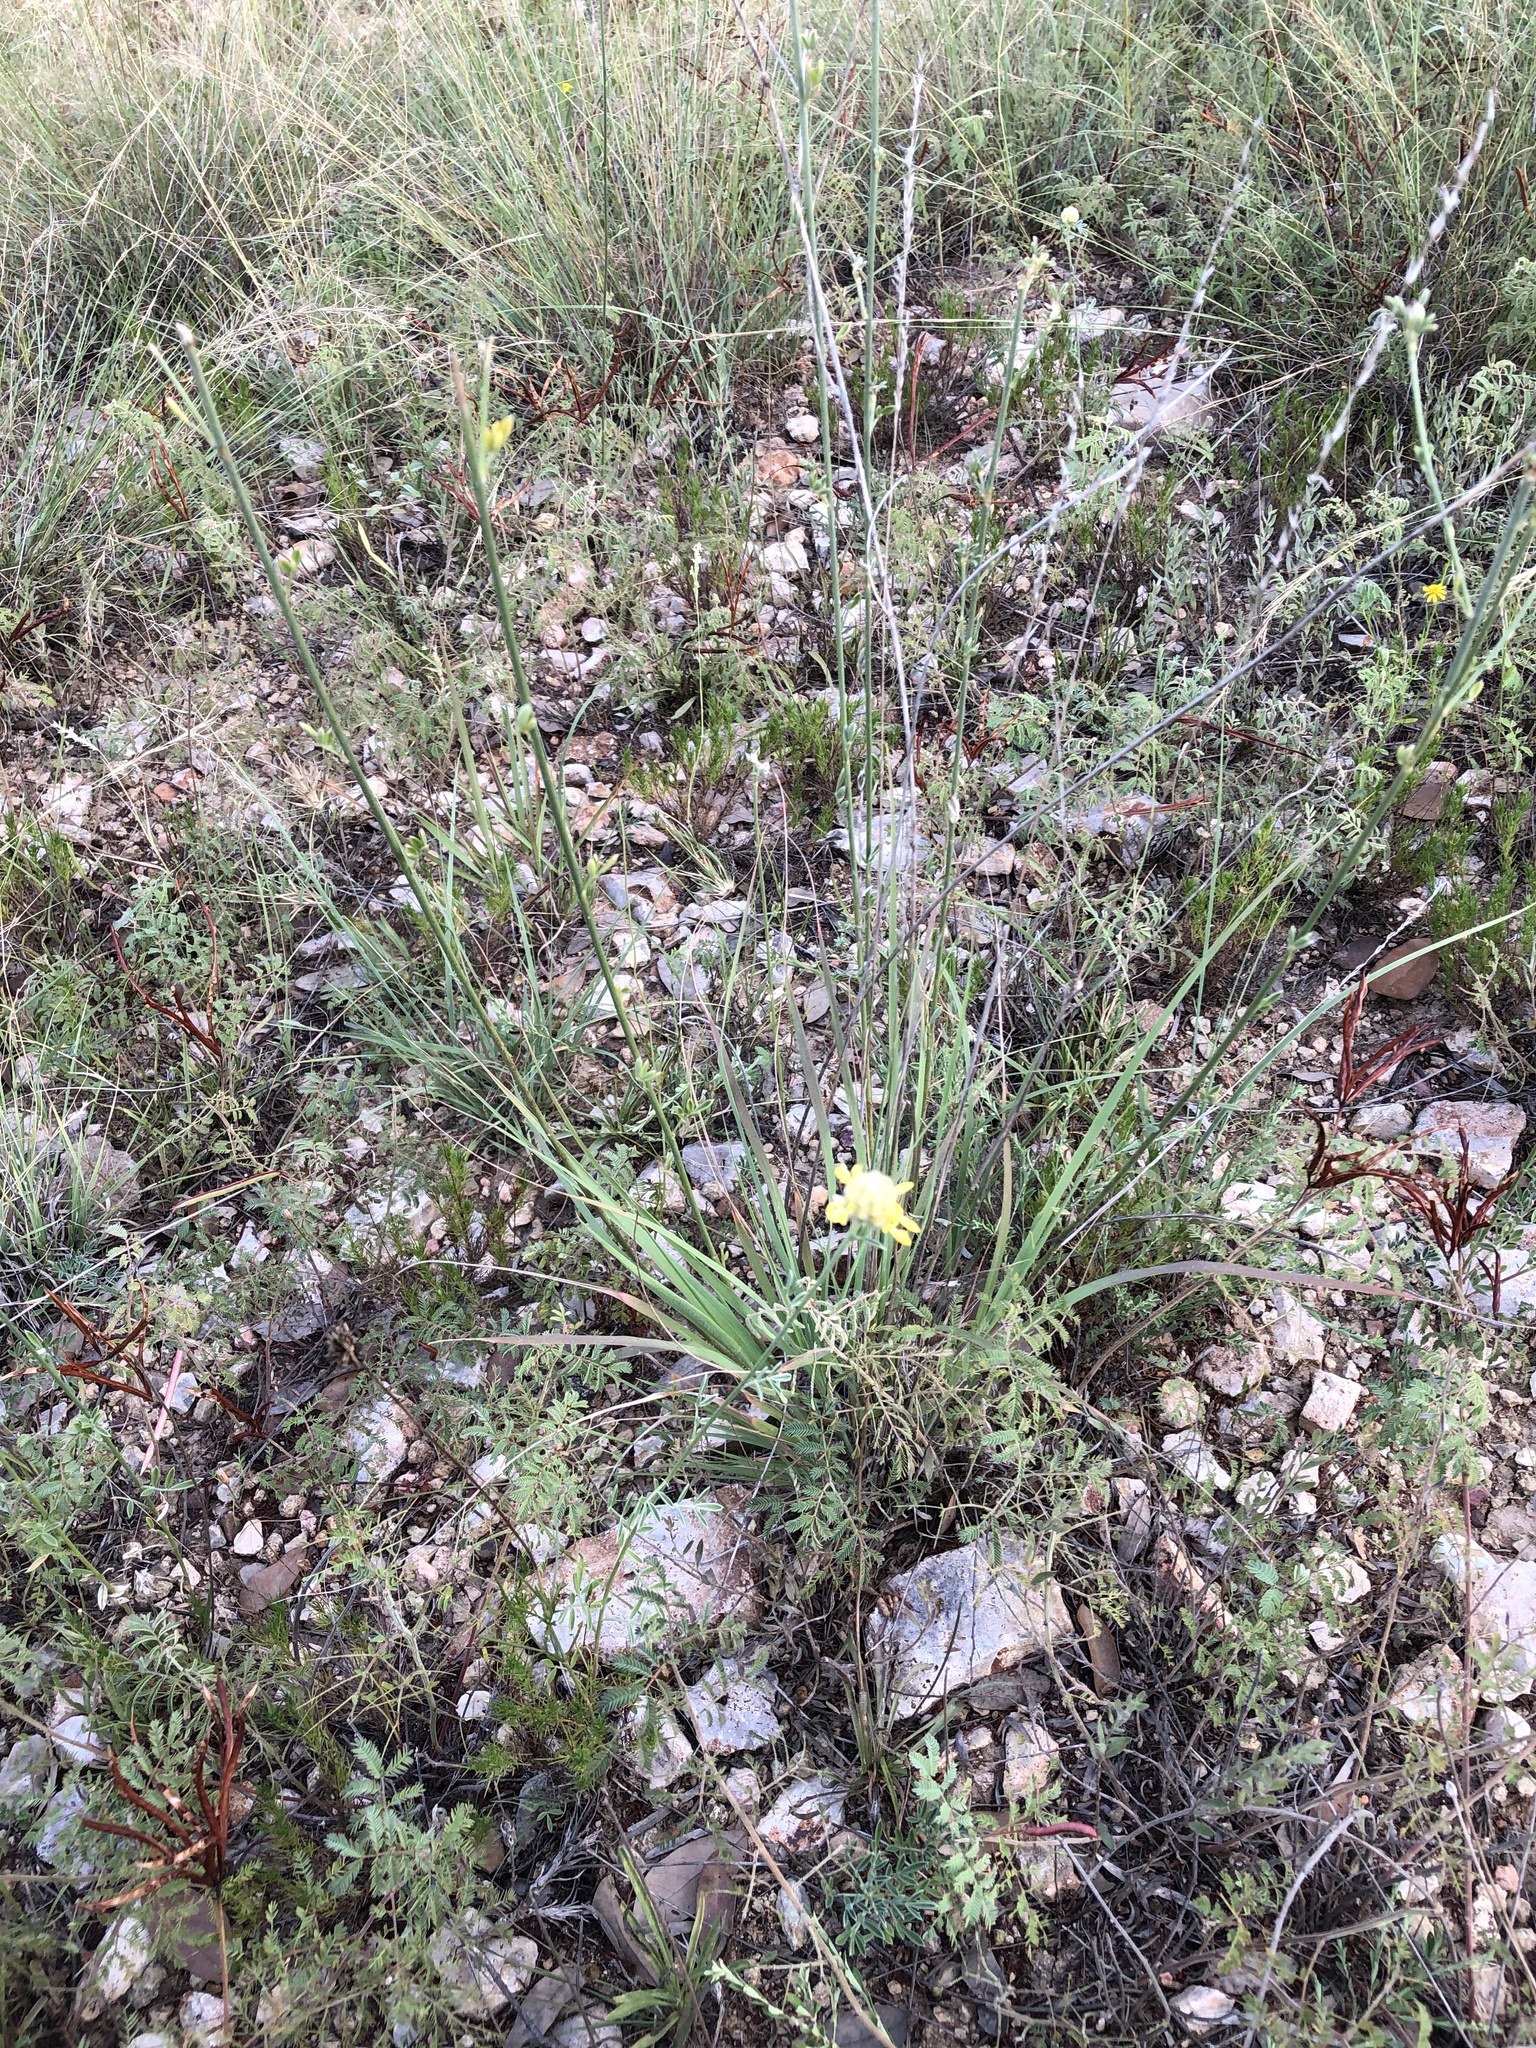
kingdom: Plantae
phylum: Tracheophyta
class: Magnoliopsida
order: Fabales
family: Fabaceae
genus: Dalea
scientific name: Dalea aurea
